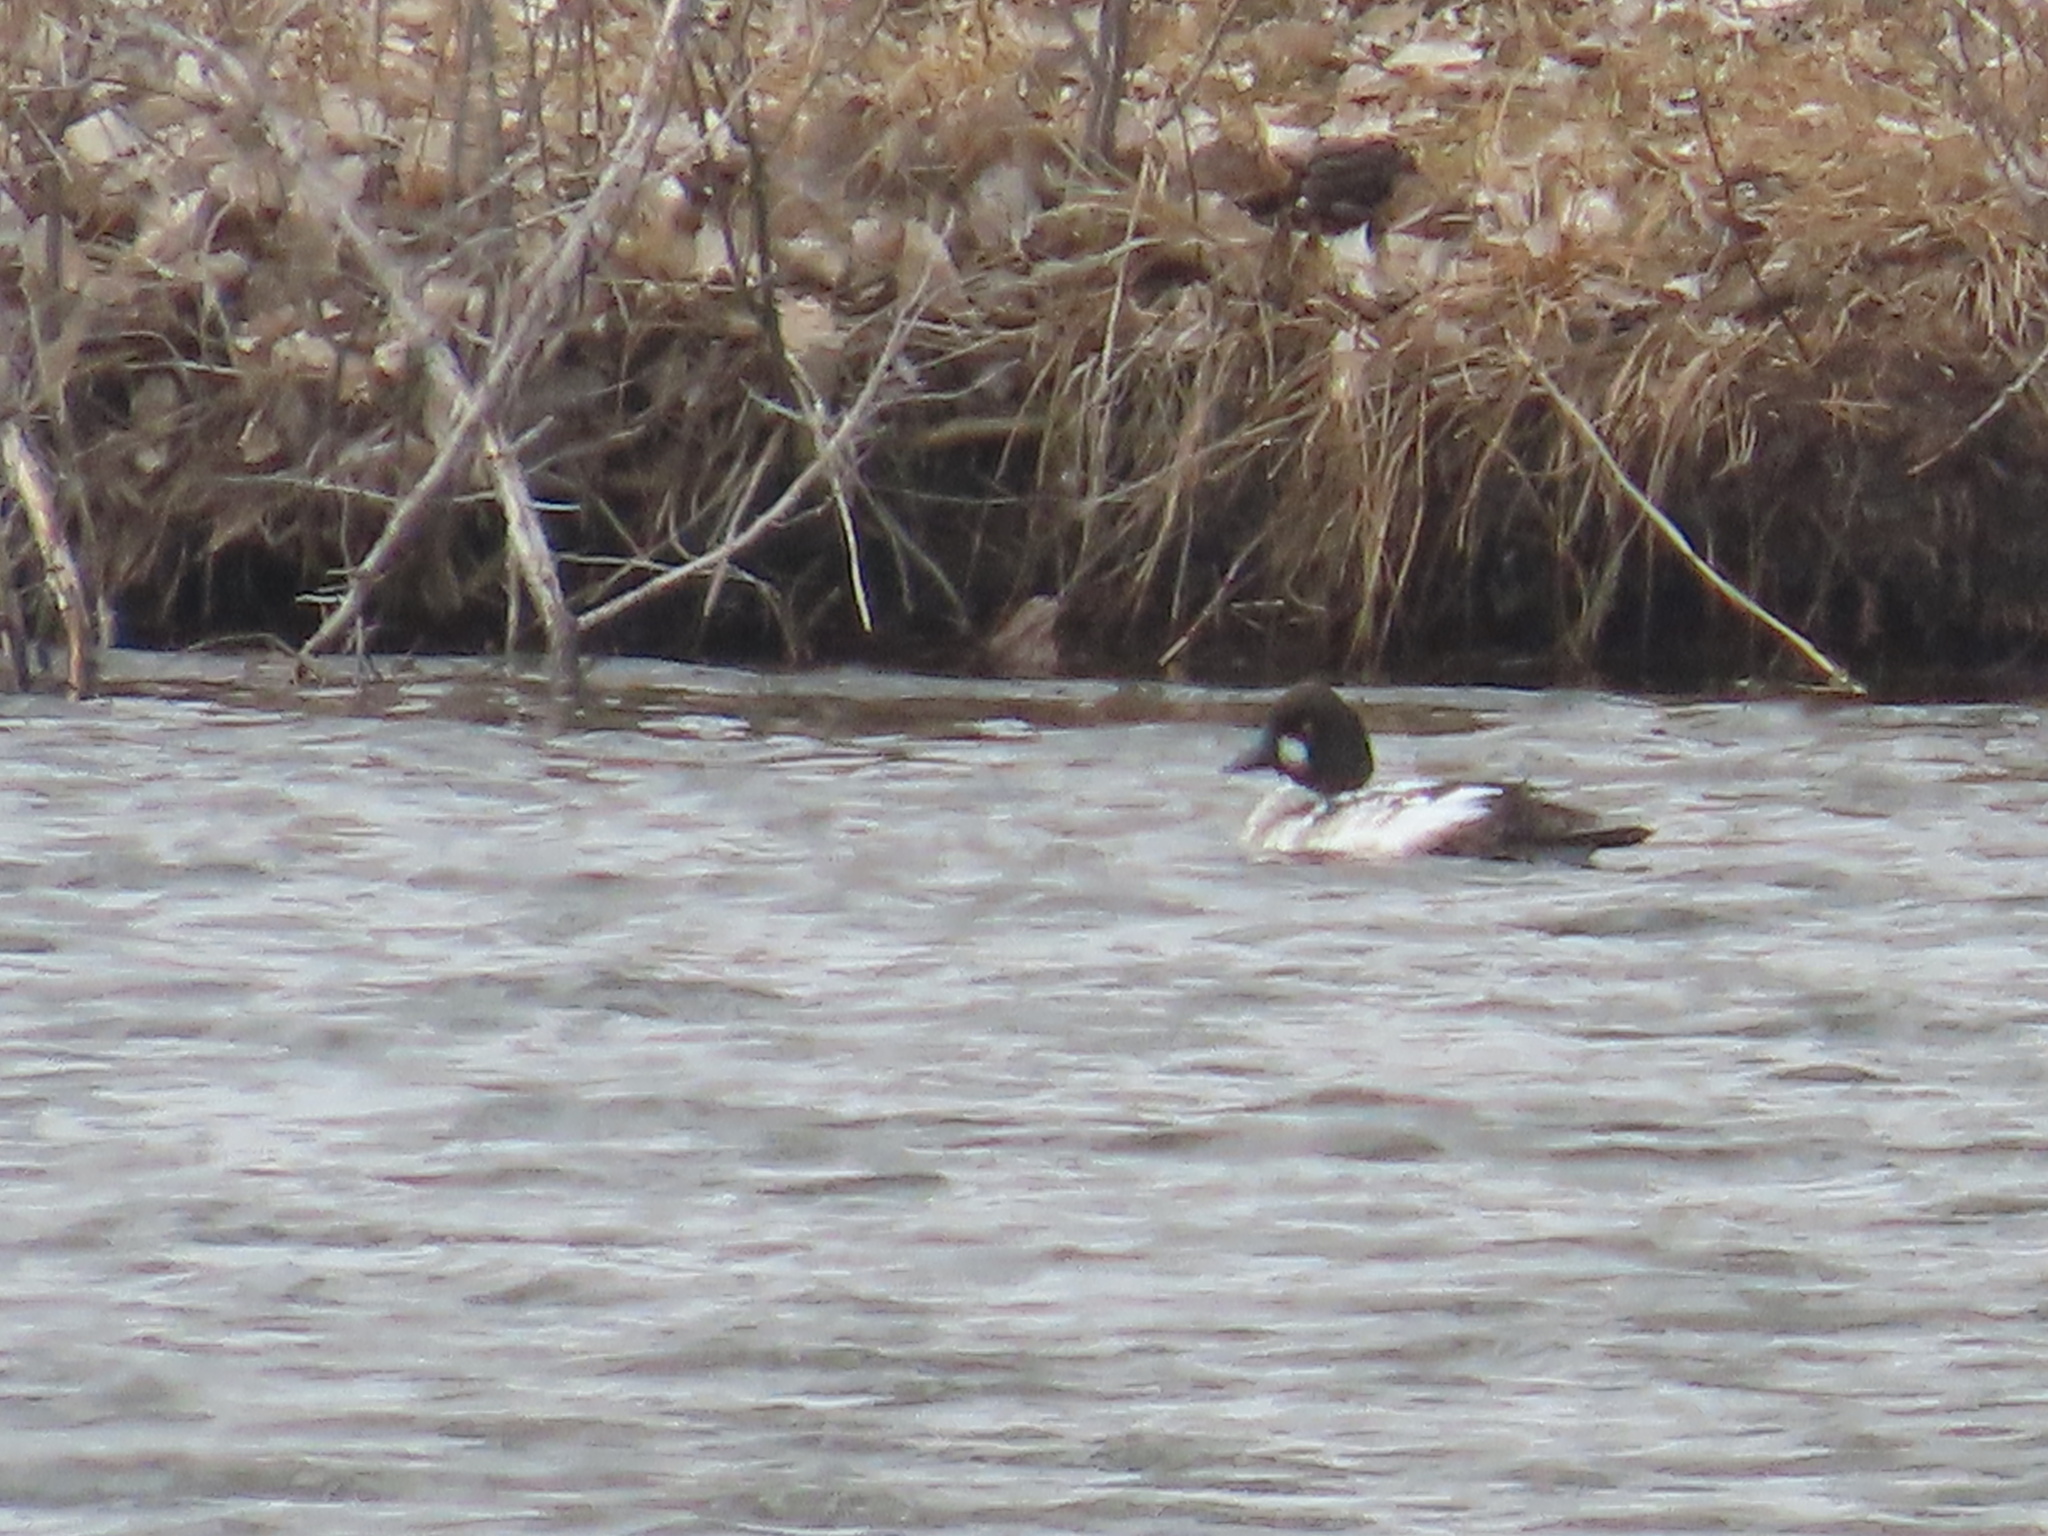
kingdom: Animalia
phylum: Chordata
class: Aves
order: Anseriformes
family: Anatidae
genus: Bucephala
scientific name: Bucephala clangula
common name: Common goldeneye
